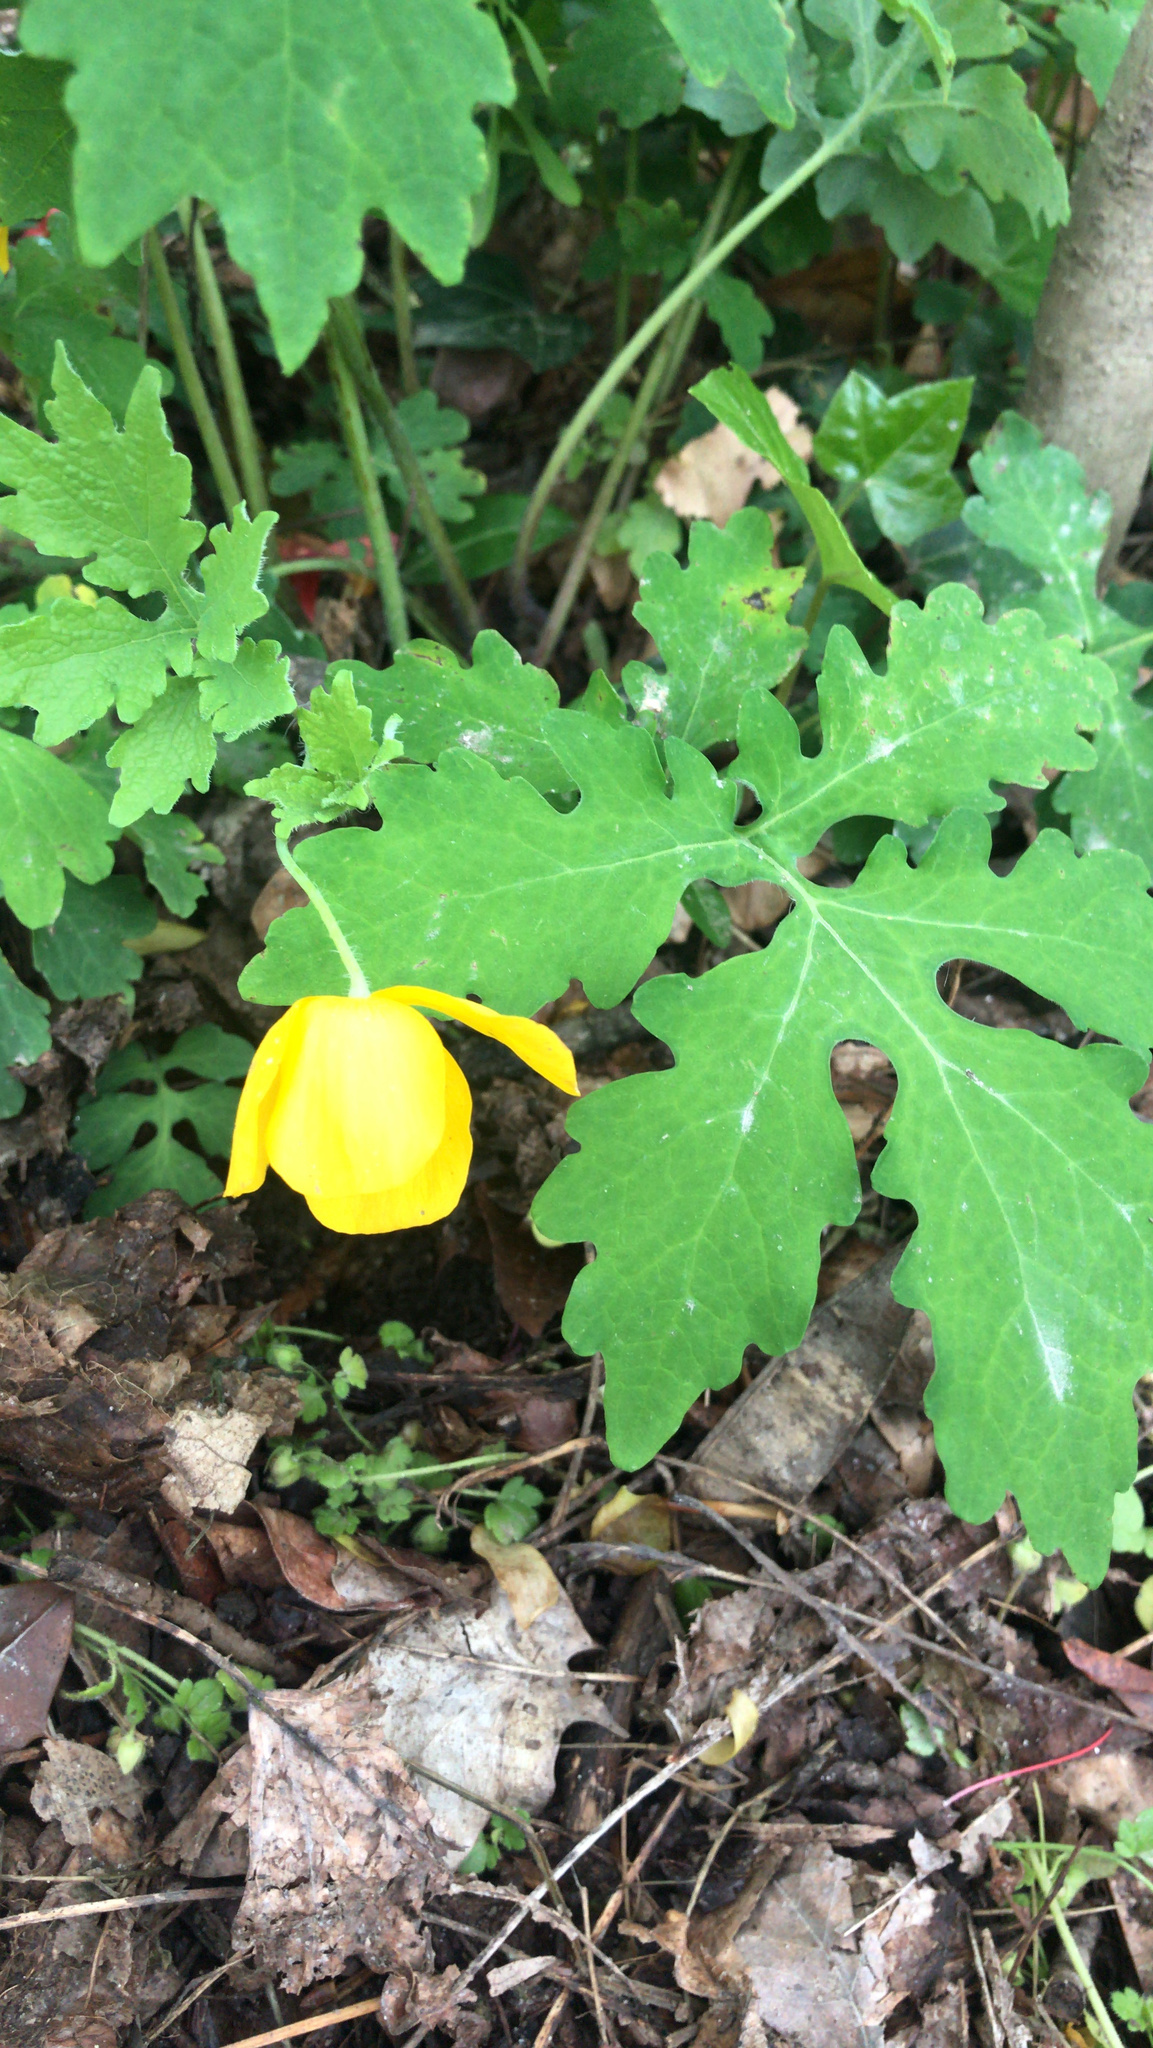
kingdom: Plantae
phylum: Tracheophyta
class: Magnoliopsida
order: Ranunculales
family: Papaveraceae
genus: Stylophorum
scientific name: Stylophorum diphyllum
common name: Celandine poppy
